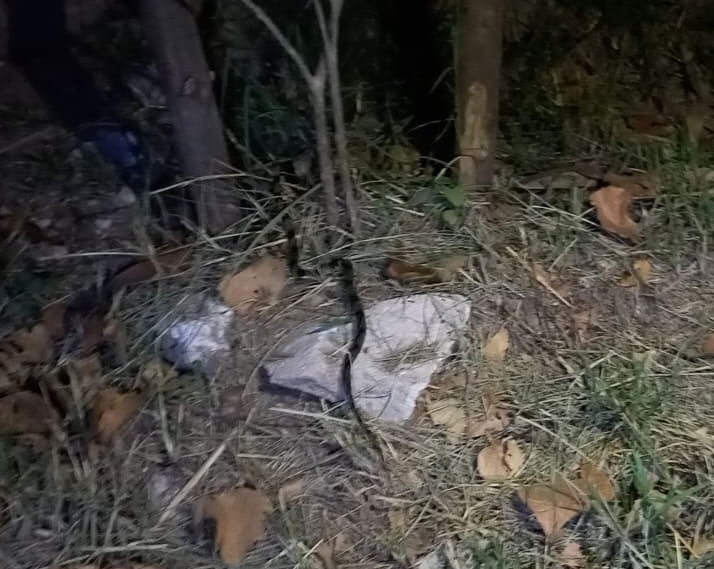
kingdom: Animalia
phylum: Chordata
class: Squamata
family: Colubridae
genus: Leptodeira
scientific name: Leptodeira nigrofasciata
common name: Black-banded cat-eyed snake
